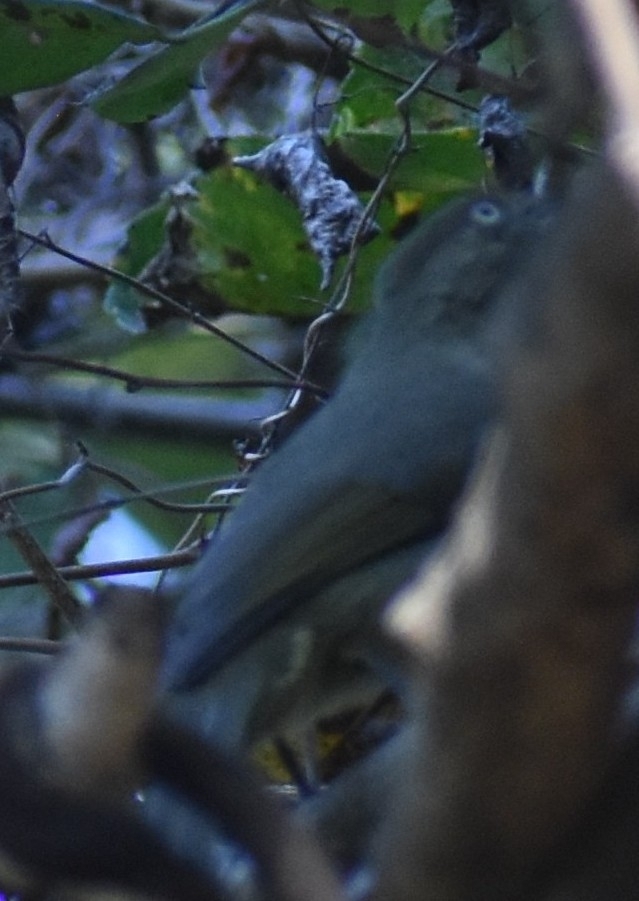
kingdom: Animalia
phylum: Chordata
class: Aves
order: Passeriformes
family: Pycnonotidae
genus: Andropadus
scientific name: Andropadus importunus
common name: Sombre greenbul
